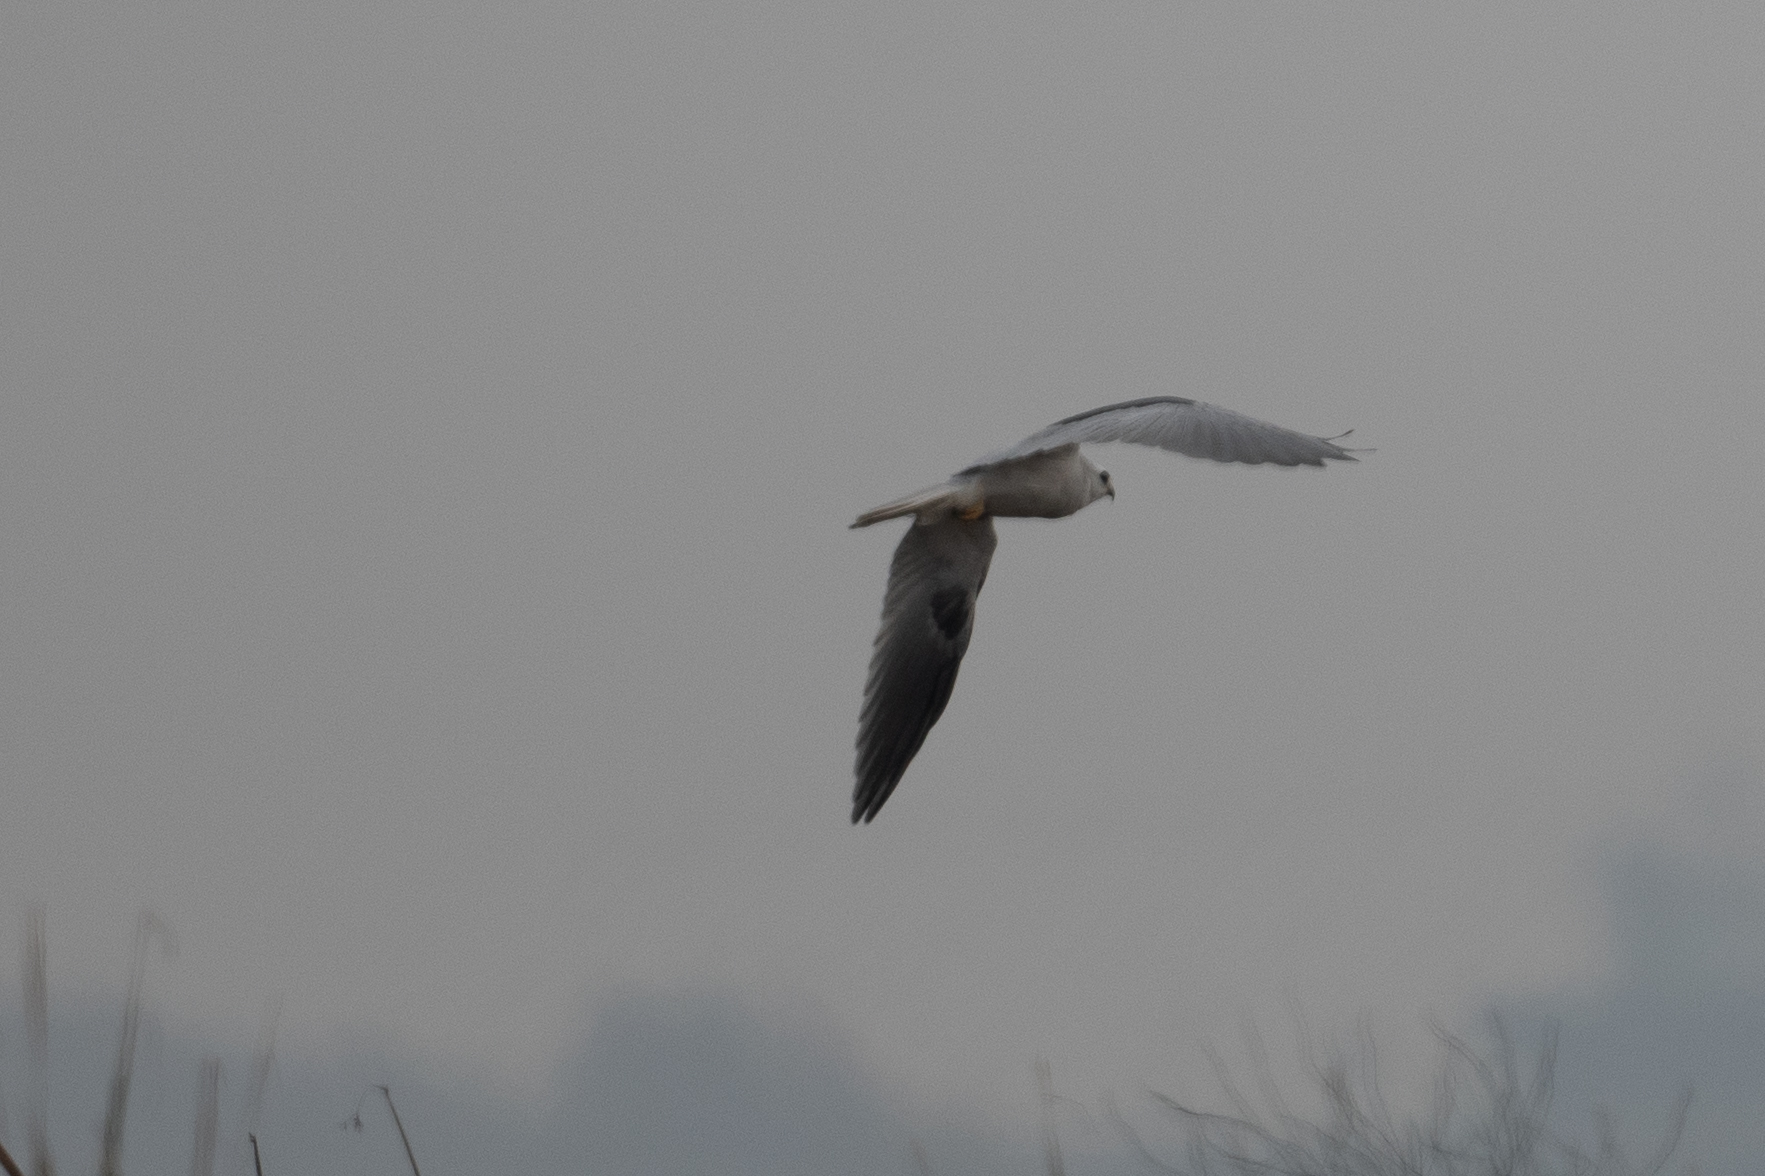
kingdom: Animalia
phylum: Chordata
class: Aves
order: Accipitriformes
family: Accipitridae
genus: Elanus
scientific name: Elanus leucurus
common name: White-tailed kite
